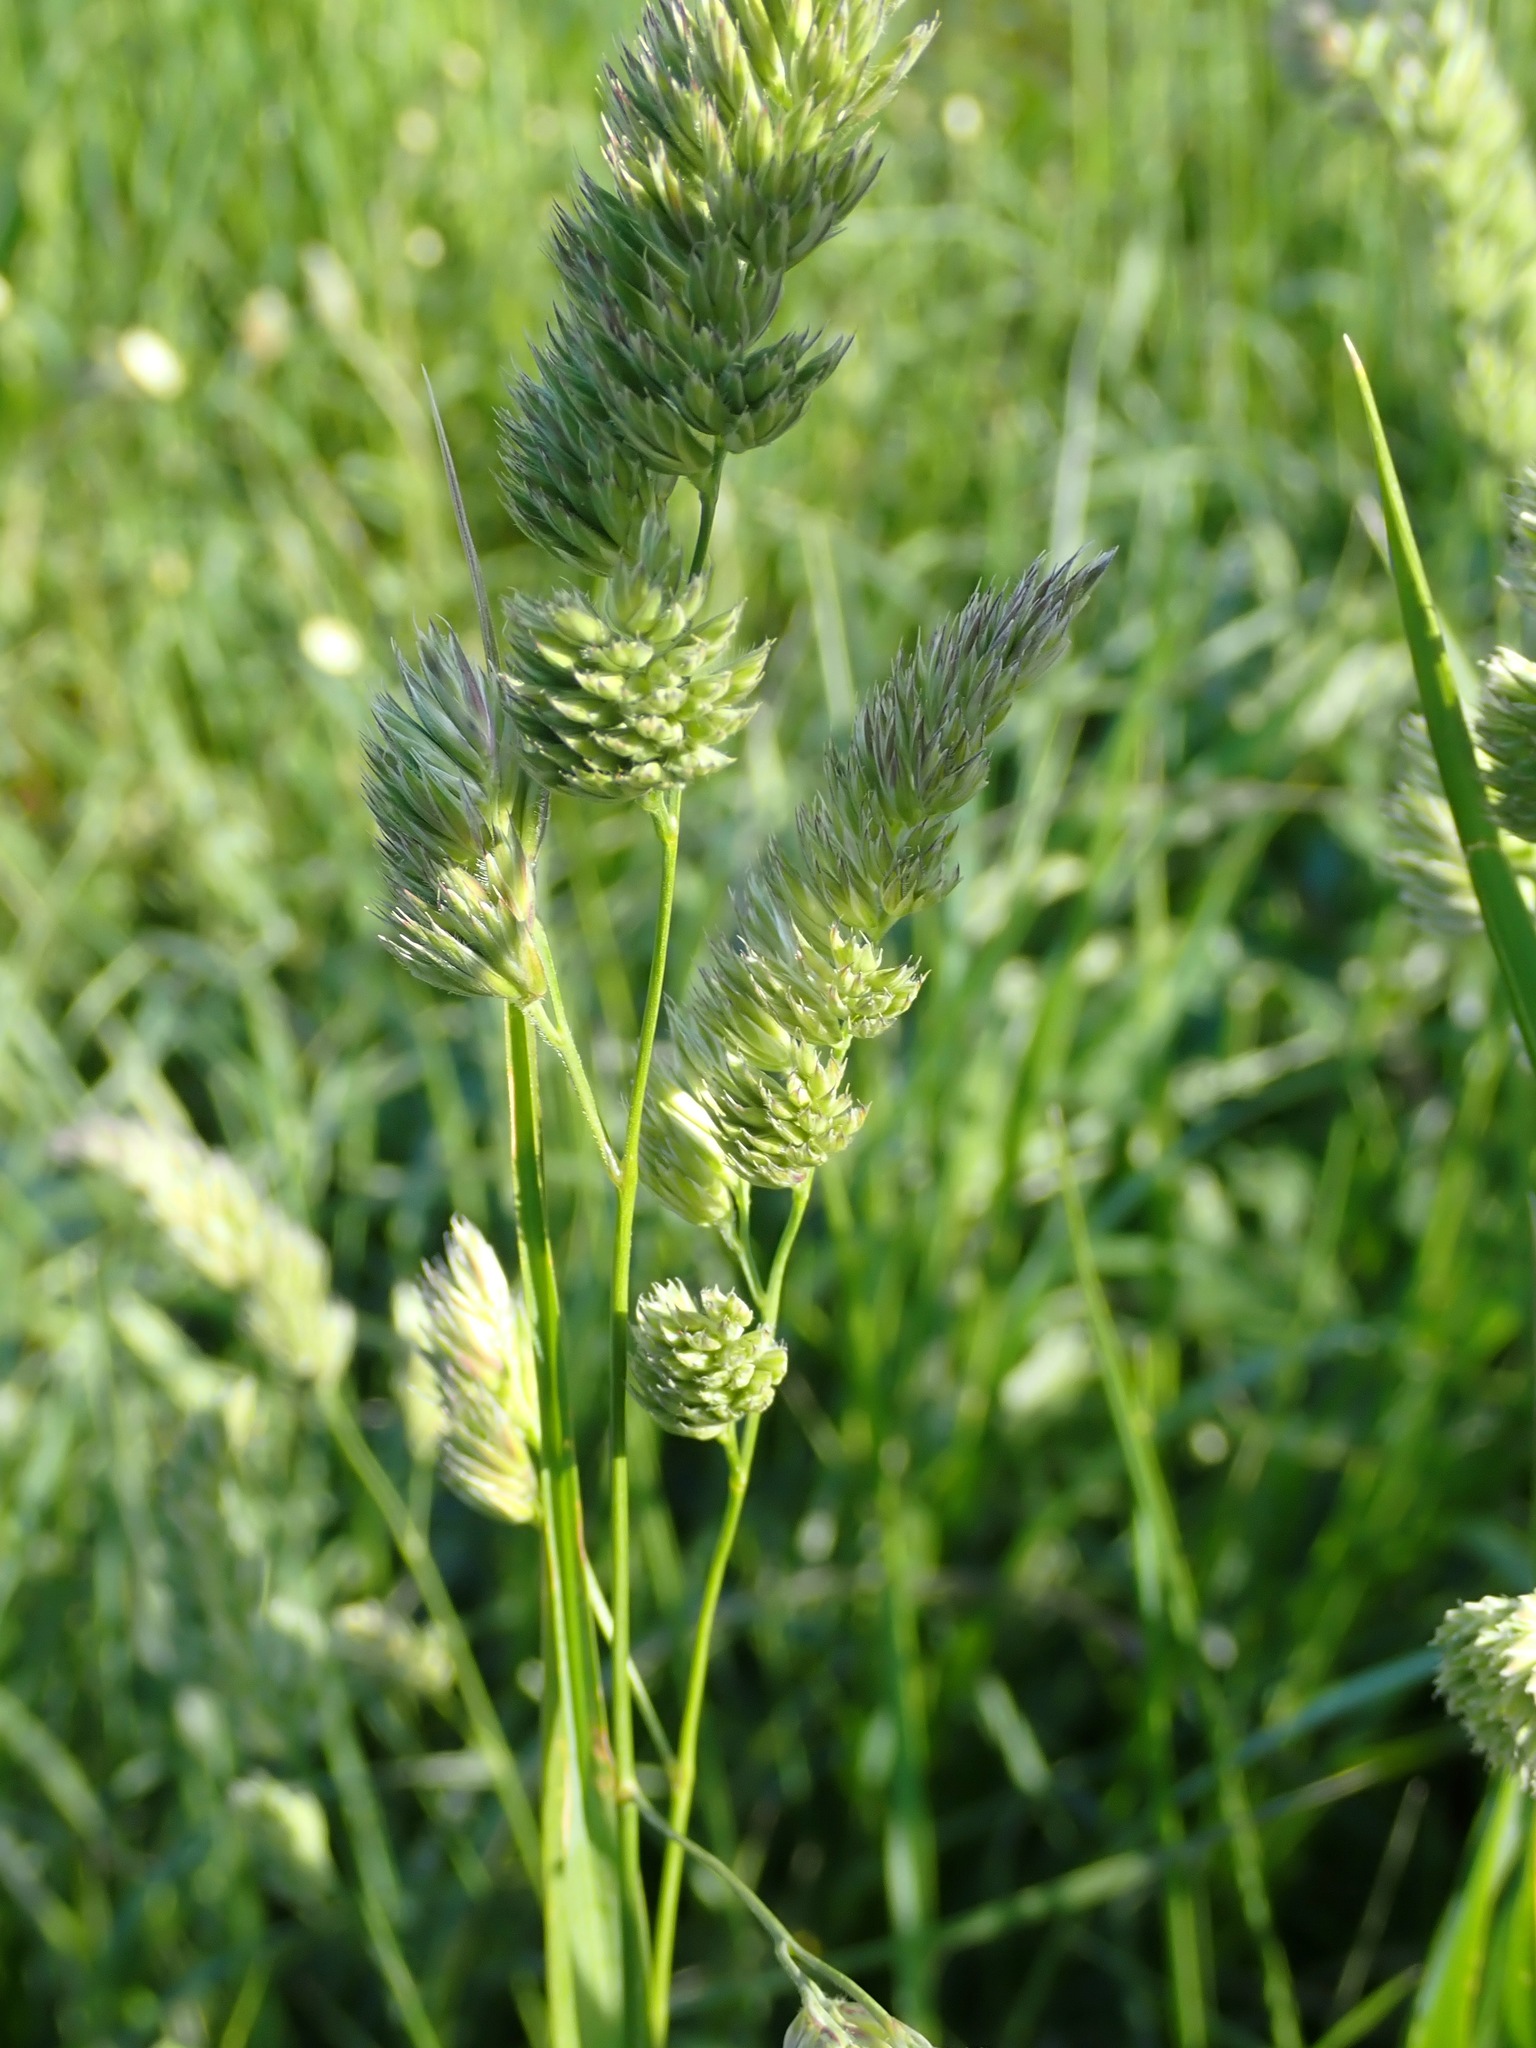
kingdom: Plantae
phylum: Tracheophyta
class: Liliopsida
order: Poales
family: Poaceae
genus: Dactylis
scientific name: Dactylis glomerata
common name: Orchardgrass
